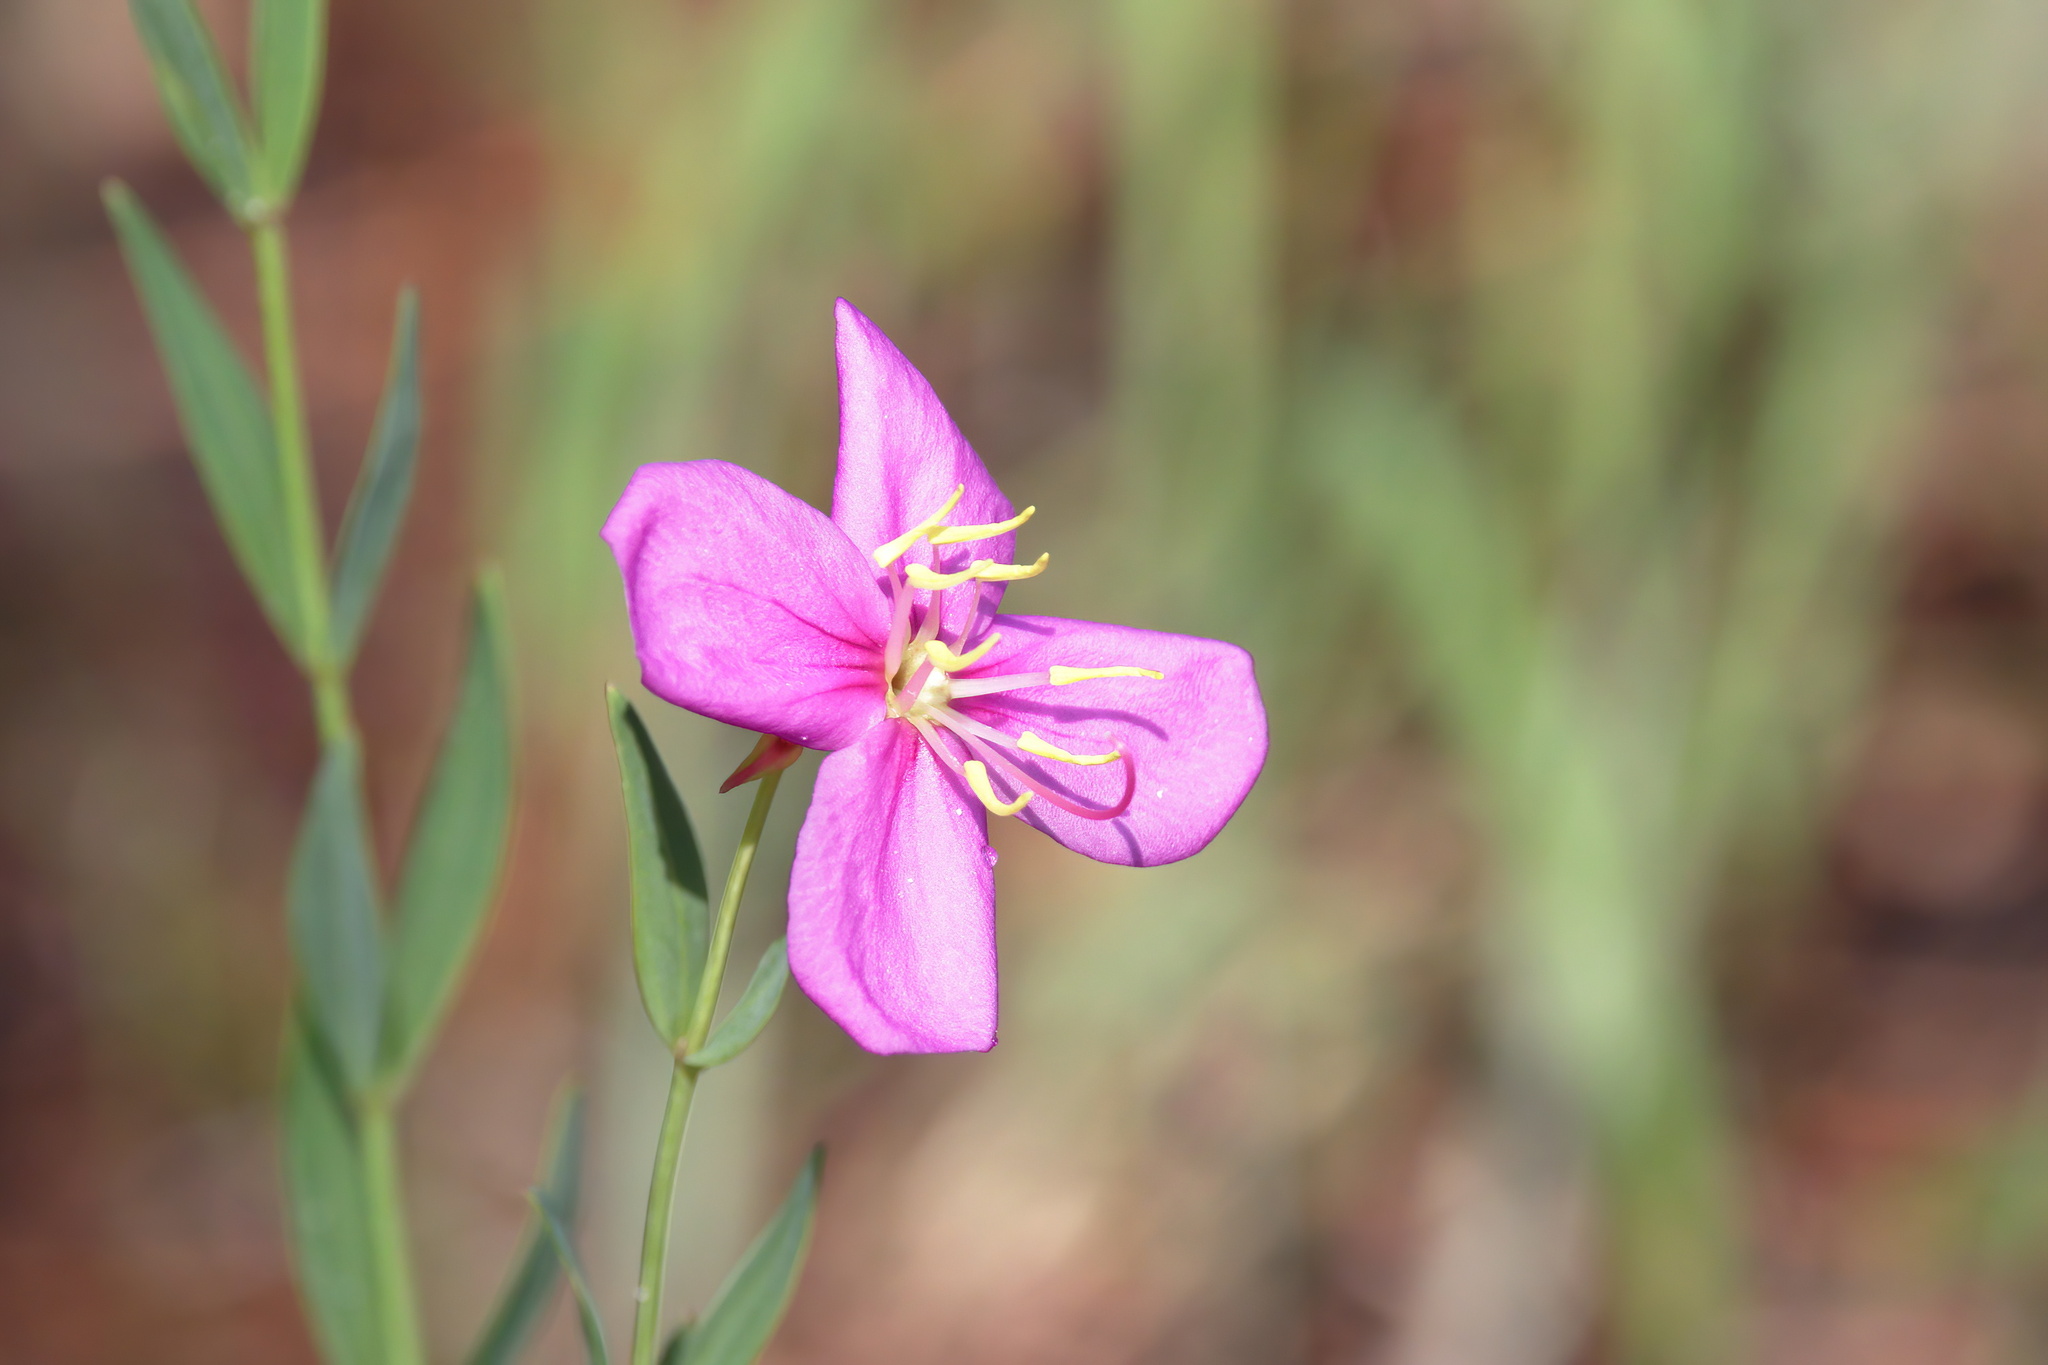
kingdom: Plantae
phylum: Tracheophyta
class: Magnoliopsida
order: Myrtales
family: Melastomataceae
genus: Rhexia
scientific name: Rhexia alifanus
